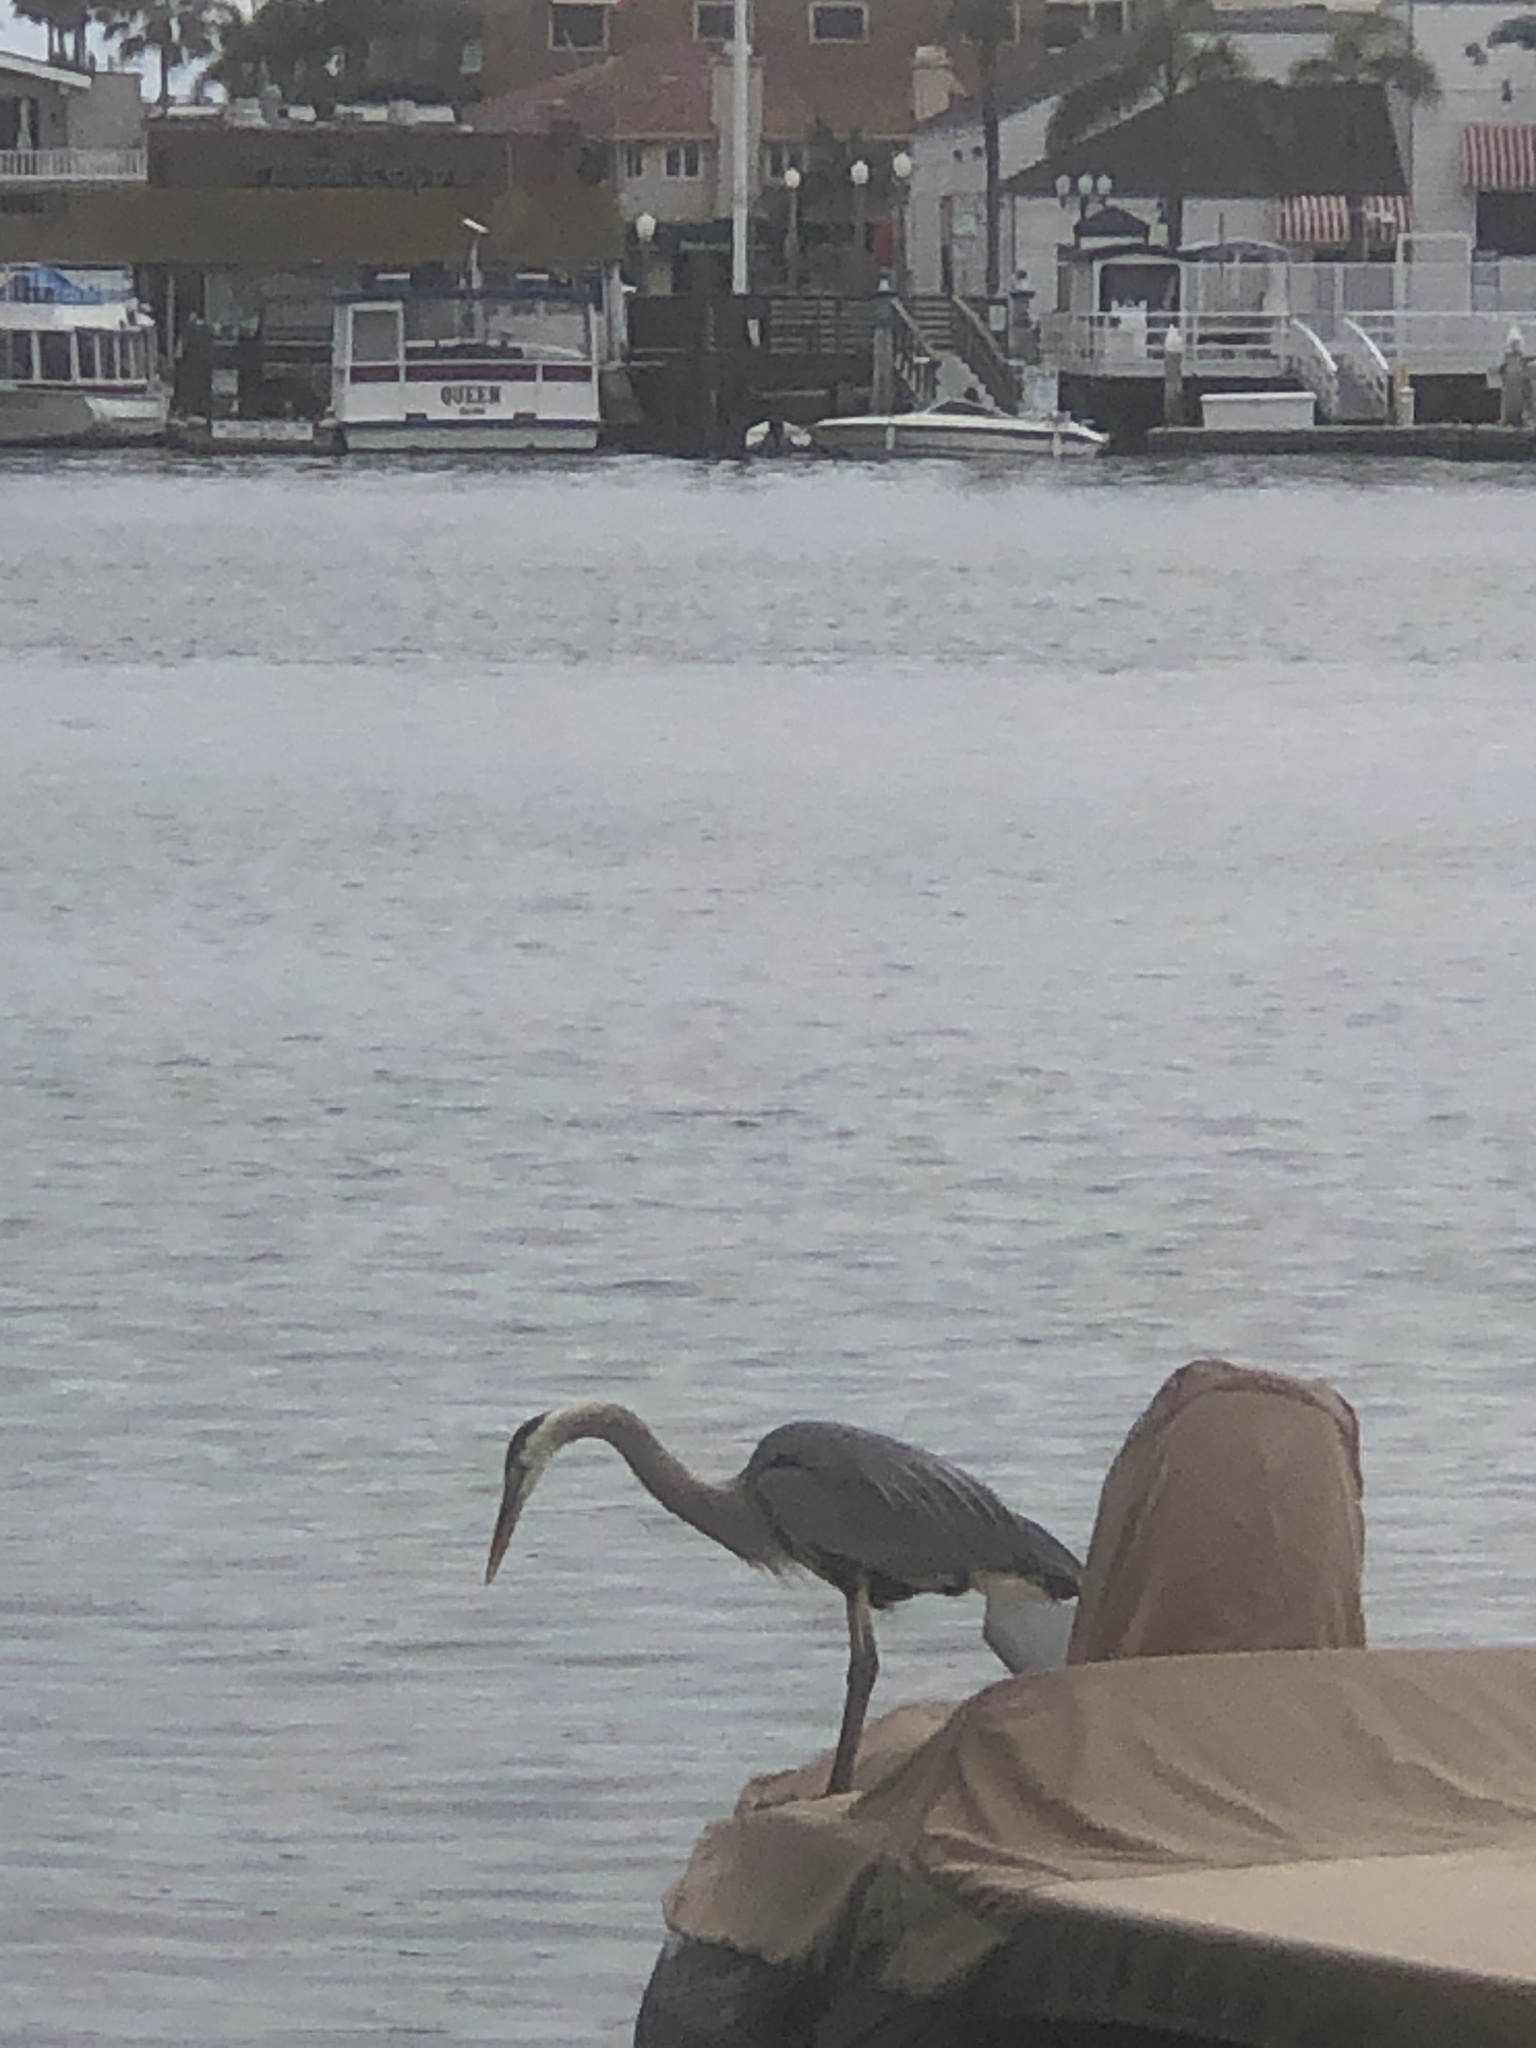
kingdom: Animalia
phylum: Chordata
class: Aves
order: Pelecaniformes
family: Ardeidae
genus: Ardea
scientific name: Ardea herodias
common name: Great blue heron
